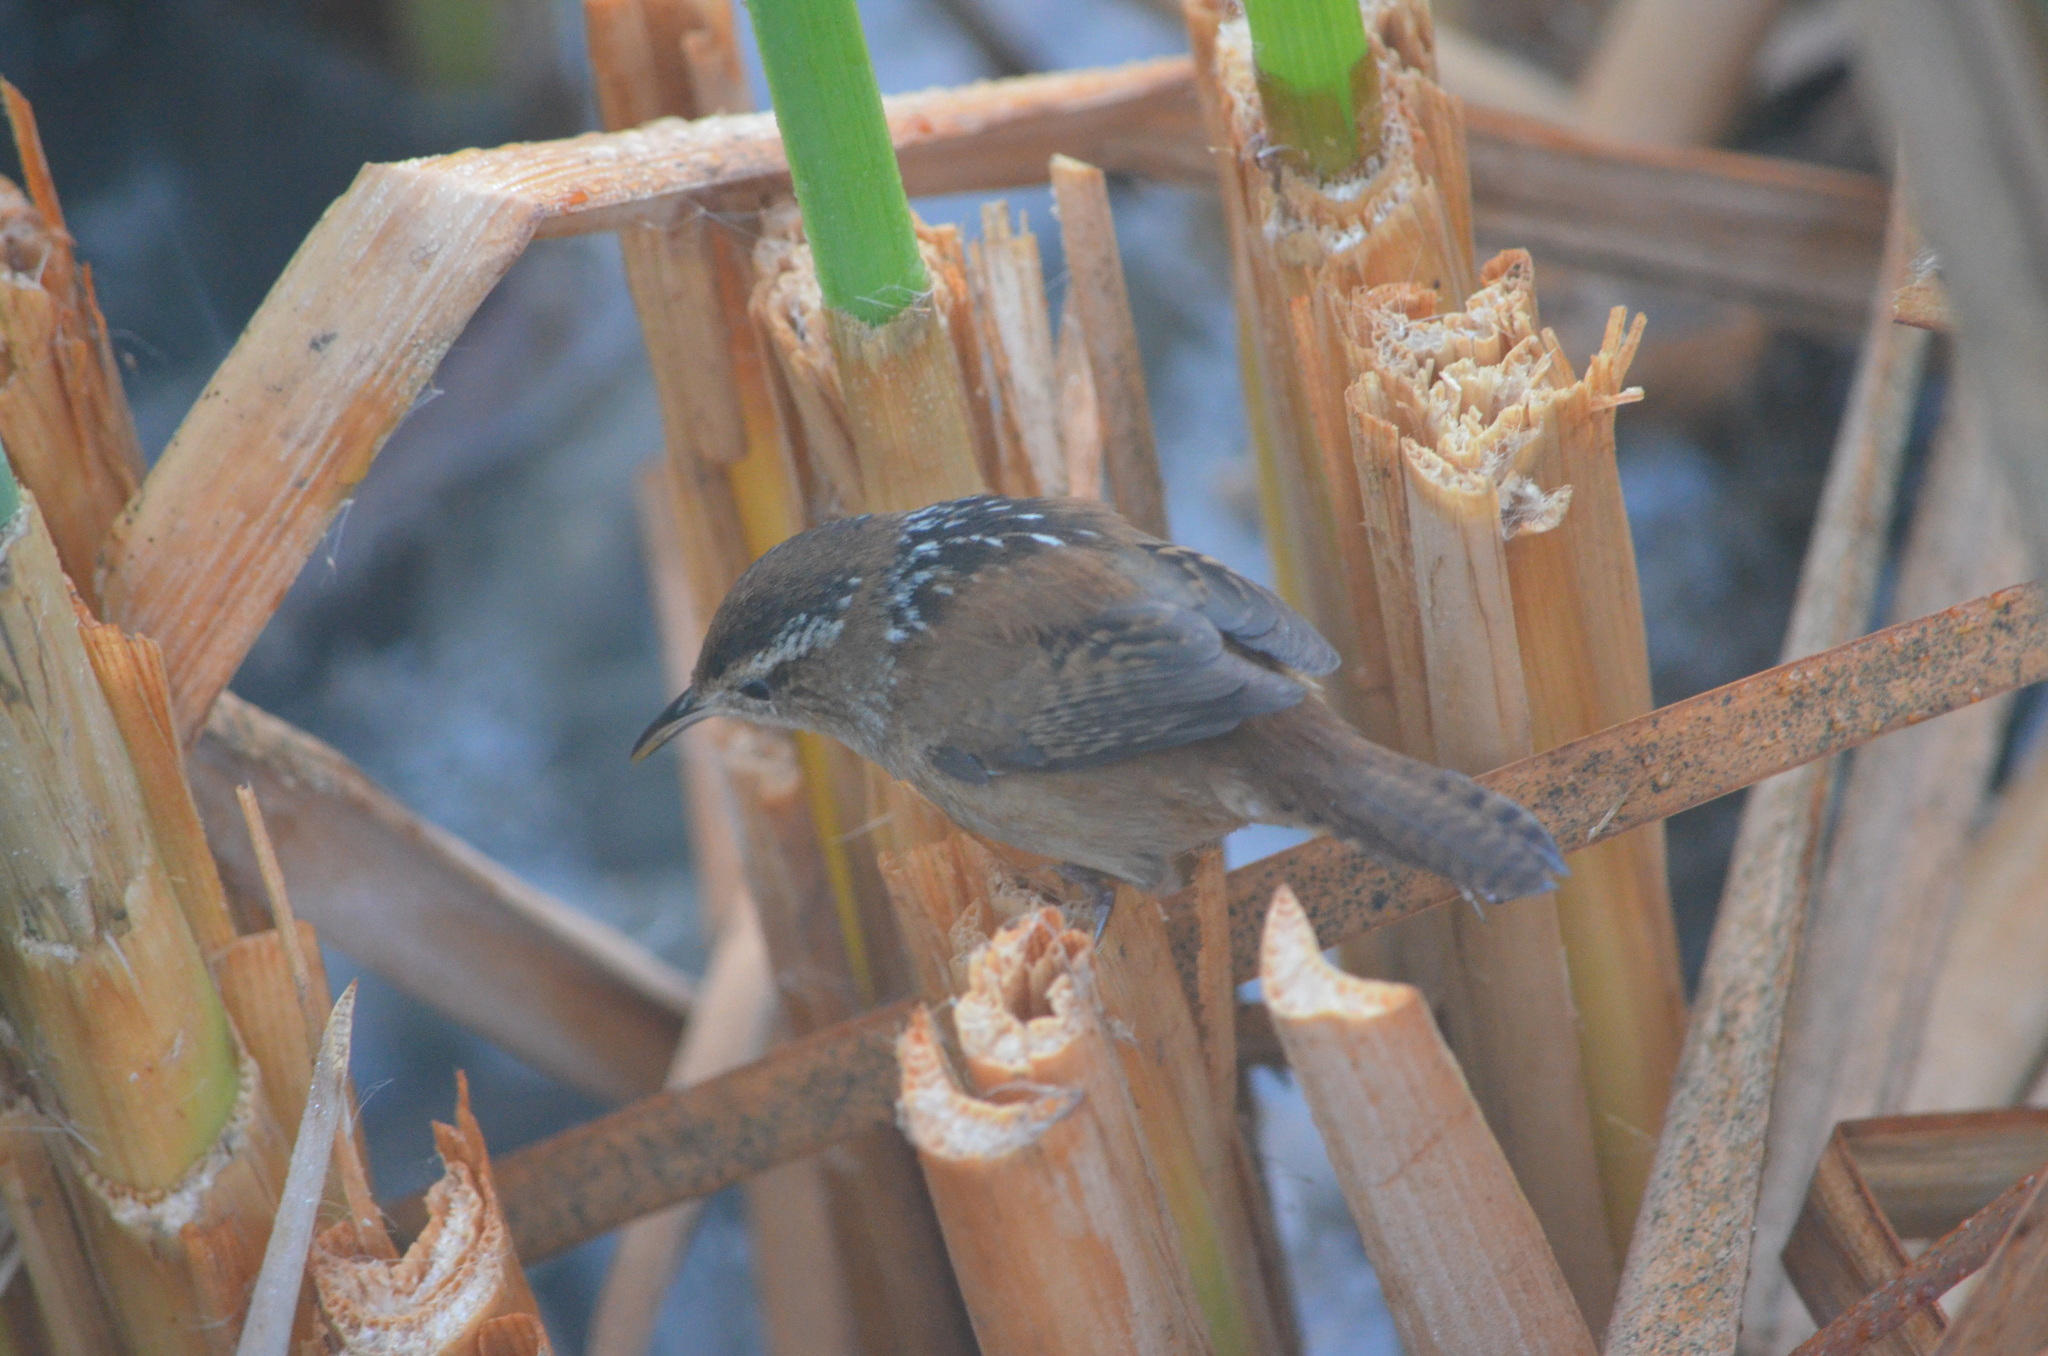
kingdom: Animalia
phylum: Chordata
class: Aves
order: Passeriformes
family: Troglodytidae
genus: Cistothorus
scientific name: Cistothorus palustris
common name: Marsh wren
